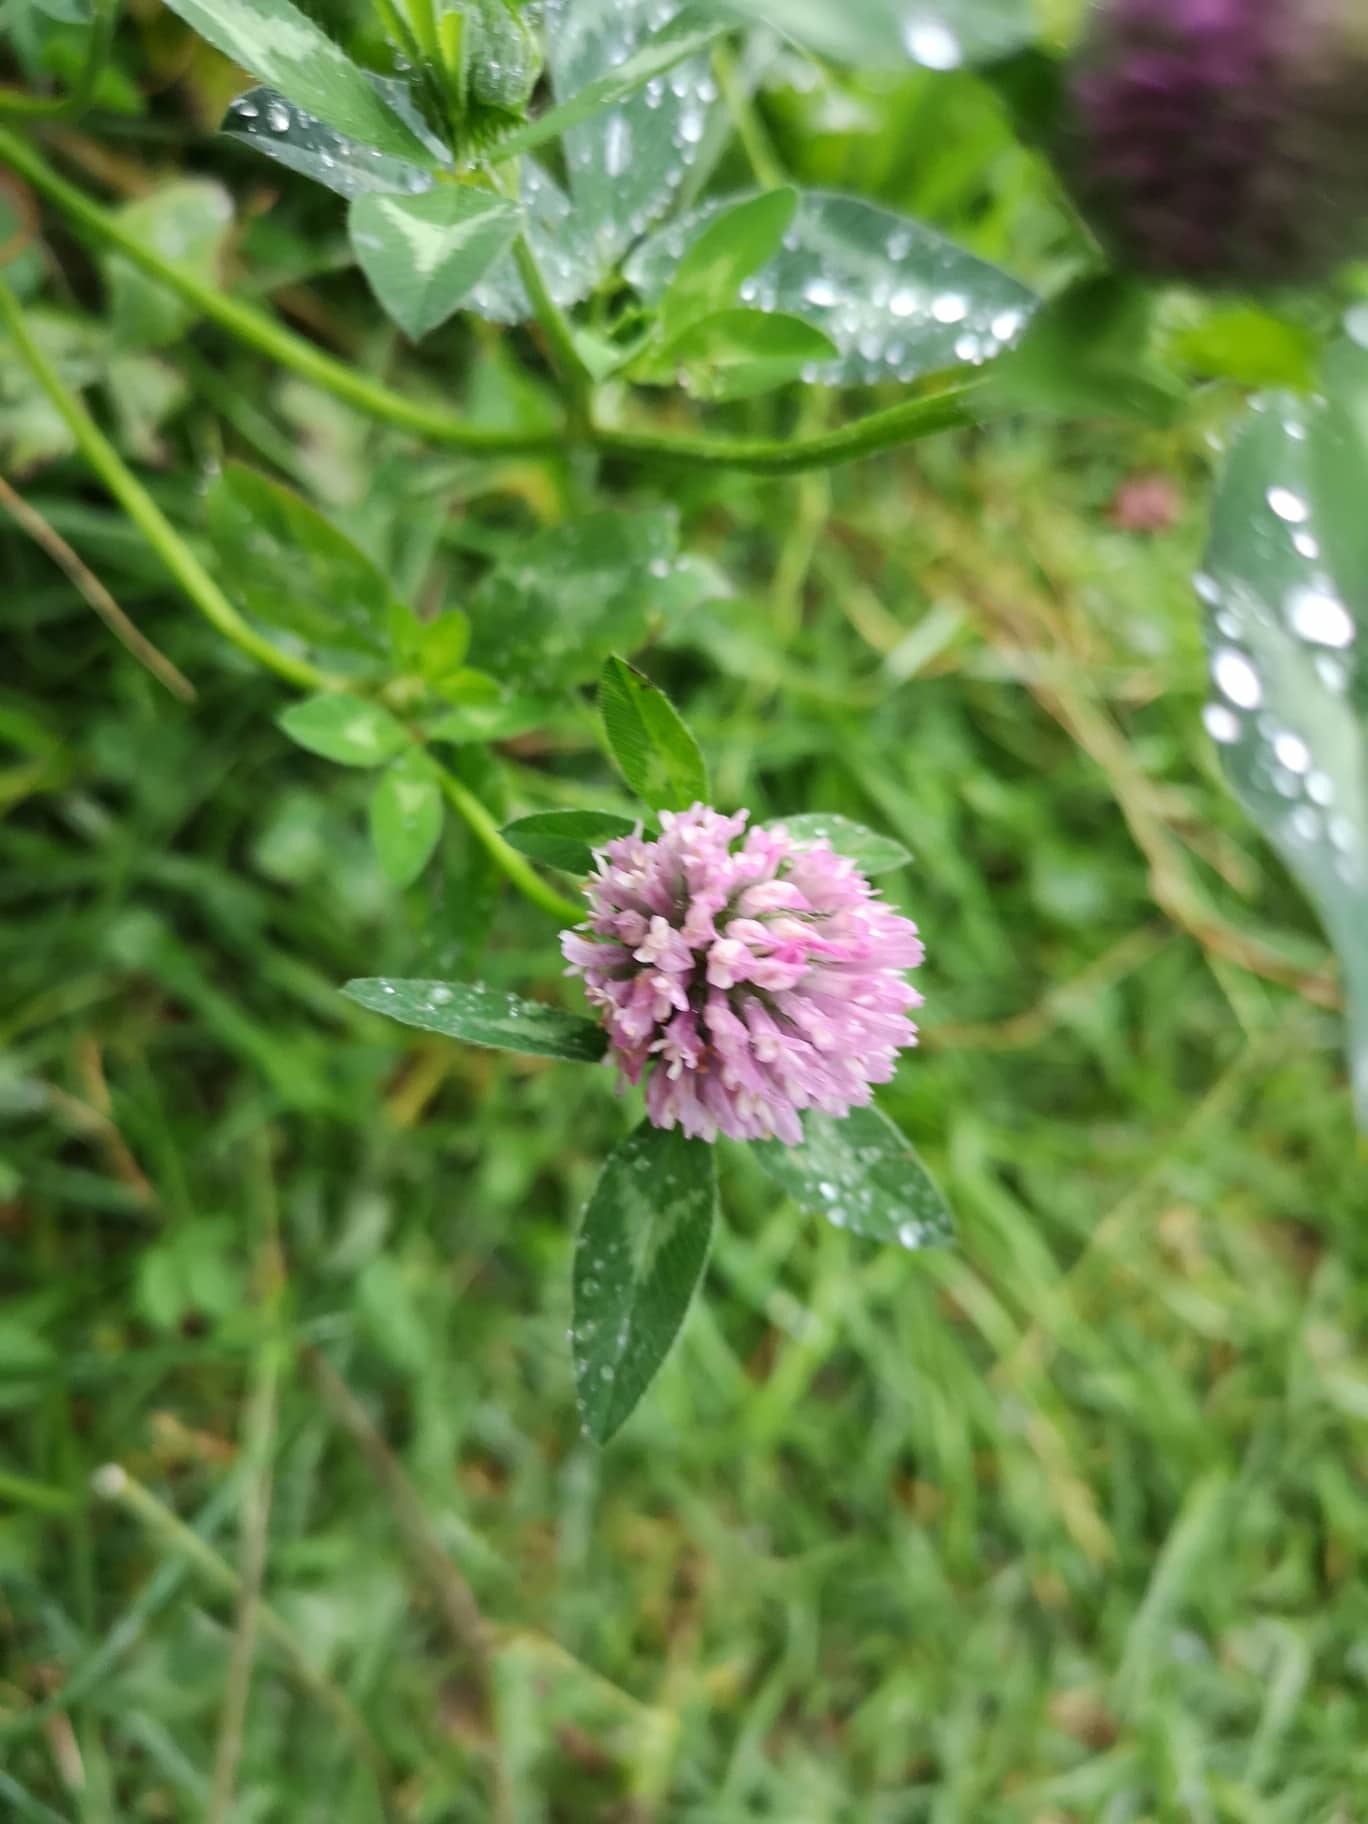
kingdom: Plantae
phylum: Tracheophyta
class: Magnoliopsida
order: Fabales
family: Fabaceae
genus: Trifolium
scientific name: Trifolium pratense
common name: Red clover
